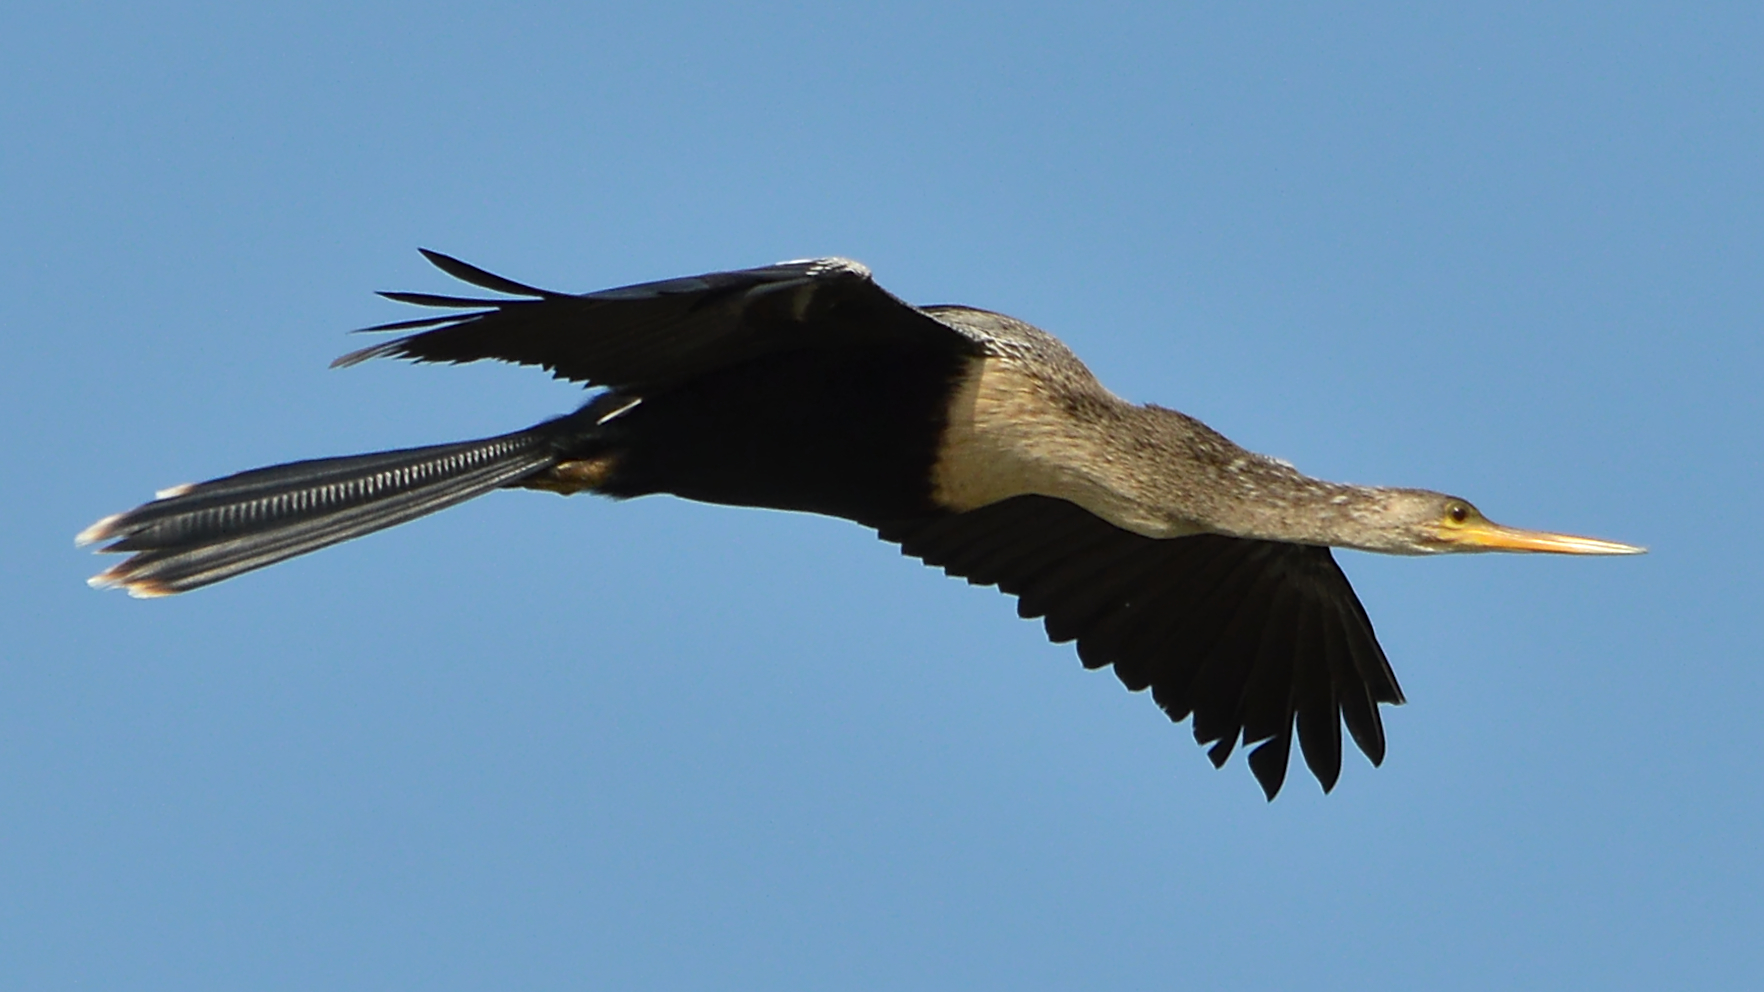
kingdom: Animalia
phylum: Chordata
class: Aves
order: Suliformes
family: Anhingidae
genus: Anhinga
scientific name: Anhinga anhinga
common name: Anhinga
